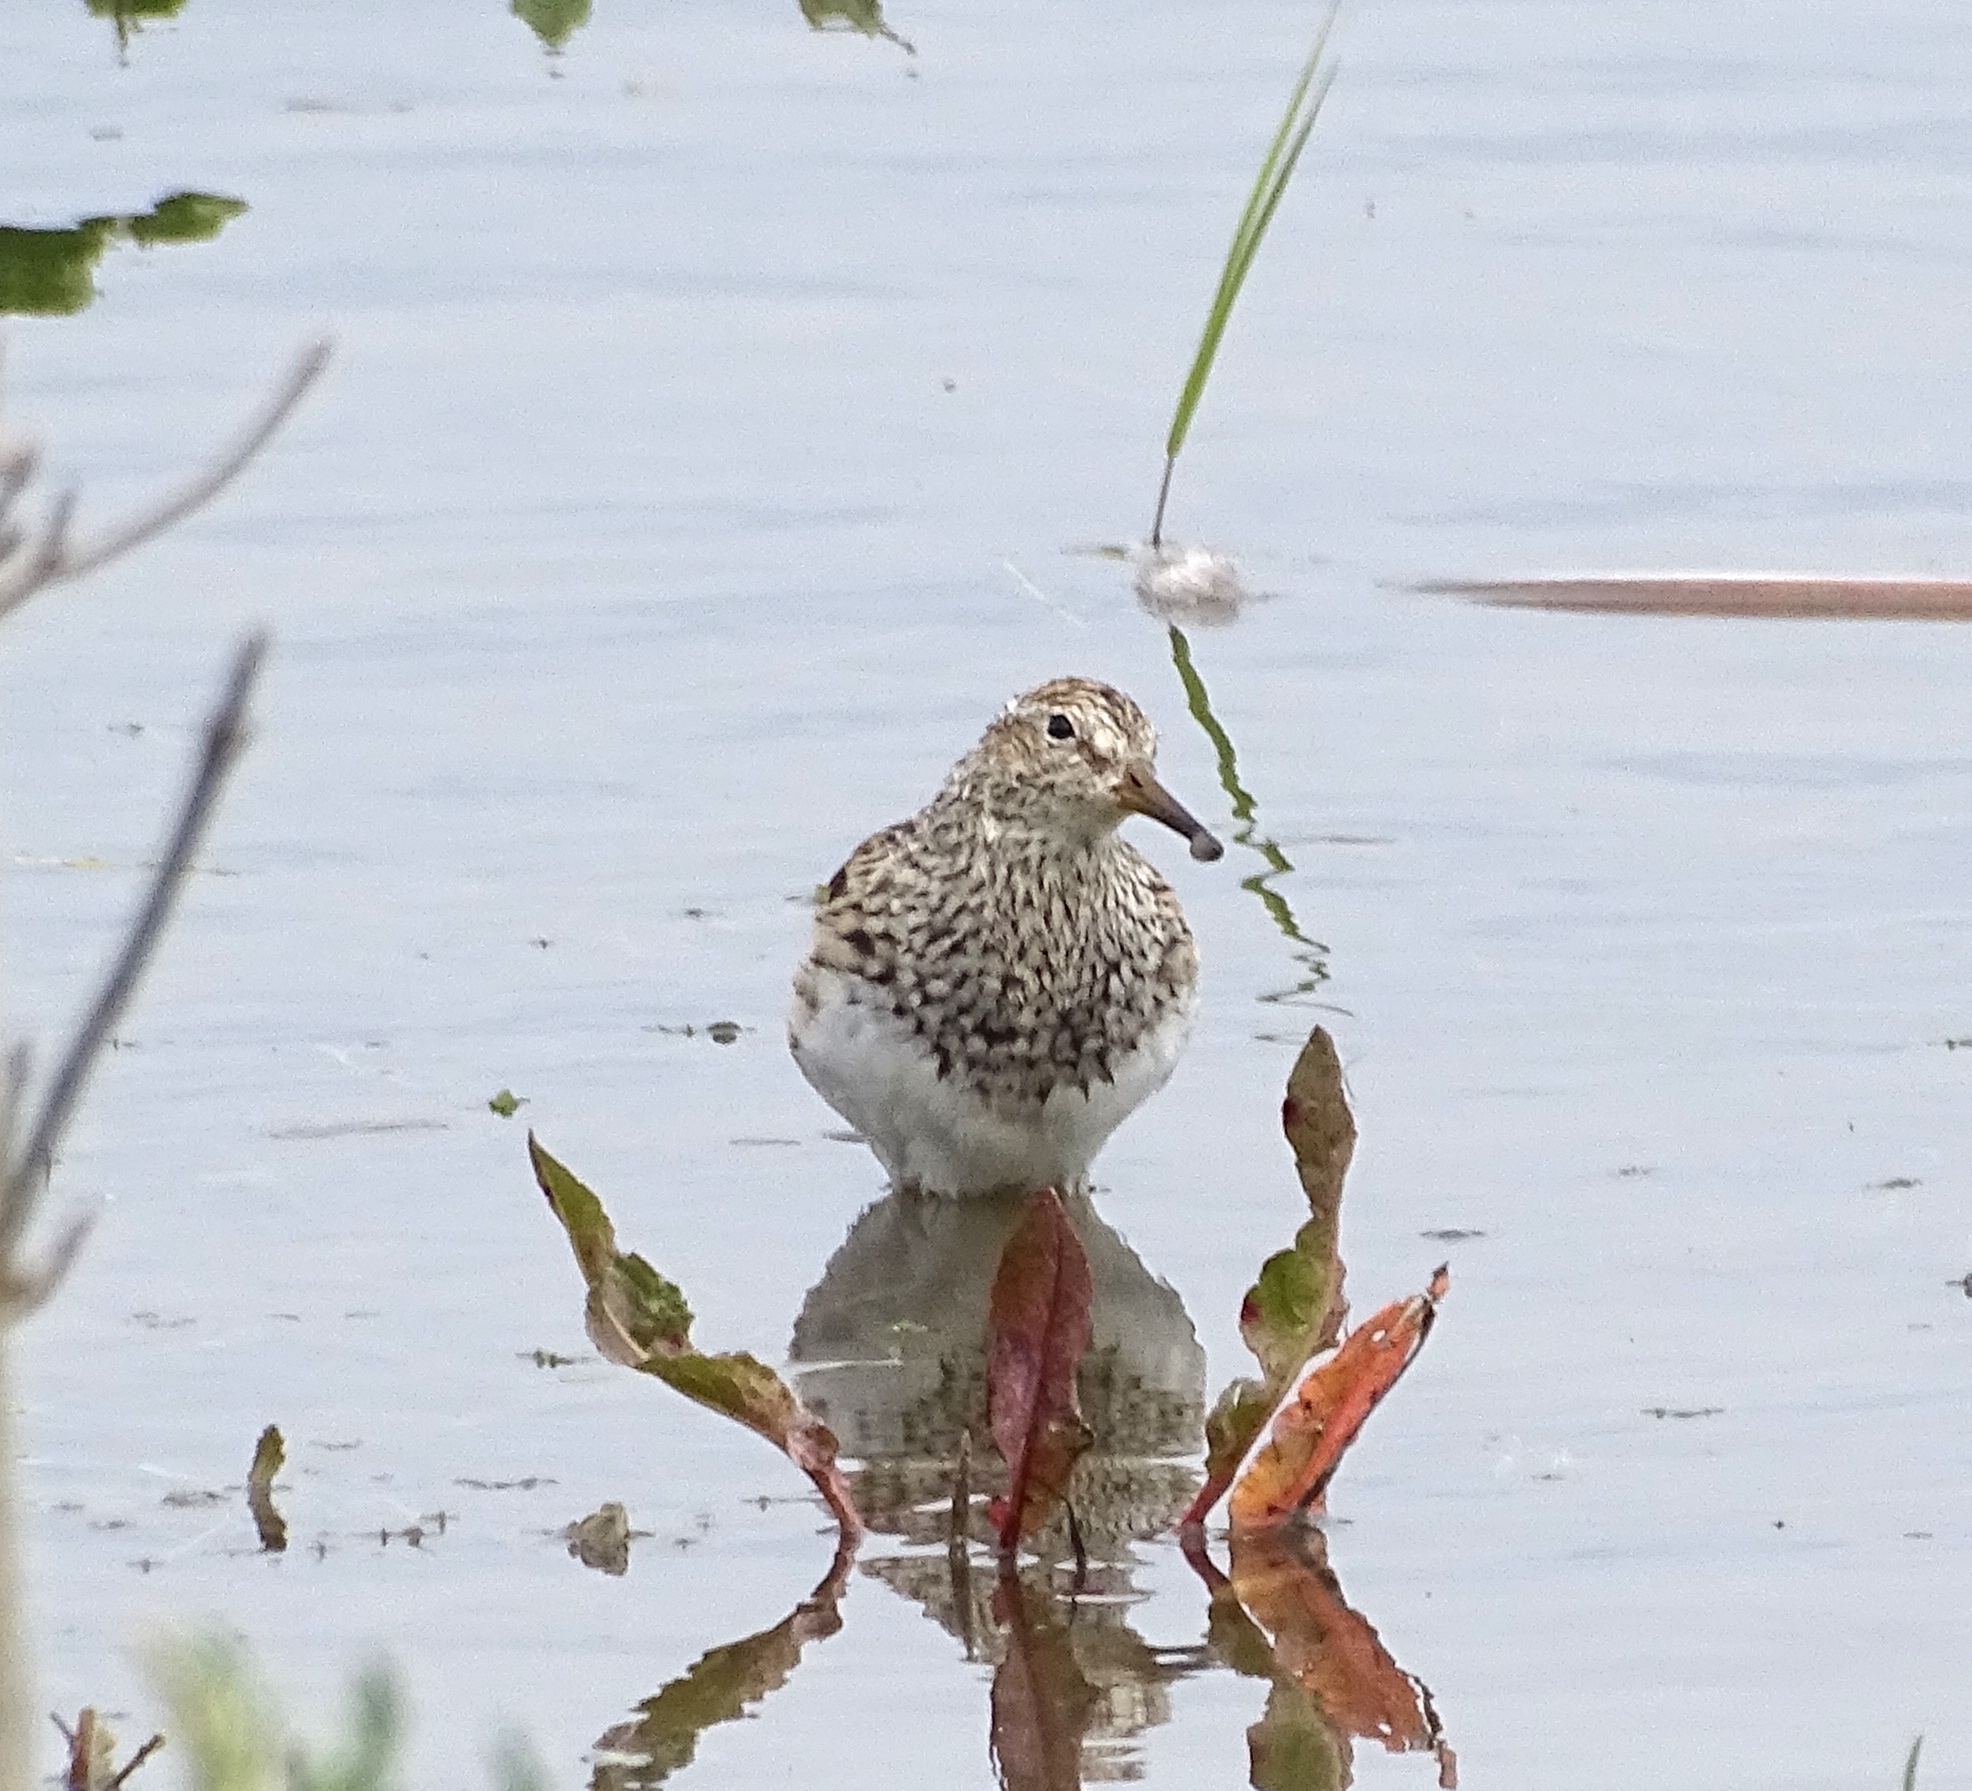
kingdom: Animalia
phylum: Chordata
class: Aves
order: Charadriiformes
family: Scolopacidae
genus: Calidris
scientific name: Calidris melanotos
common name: Pectoral sandpiper
